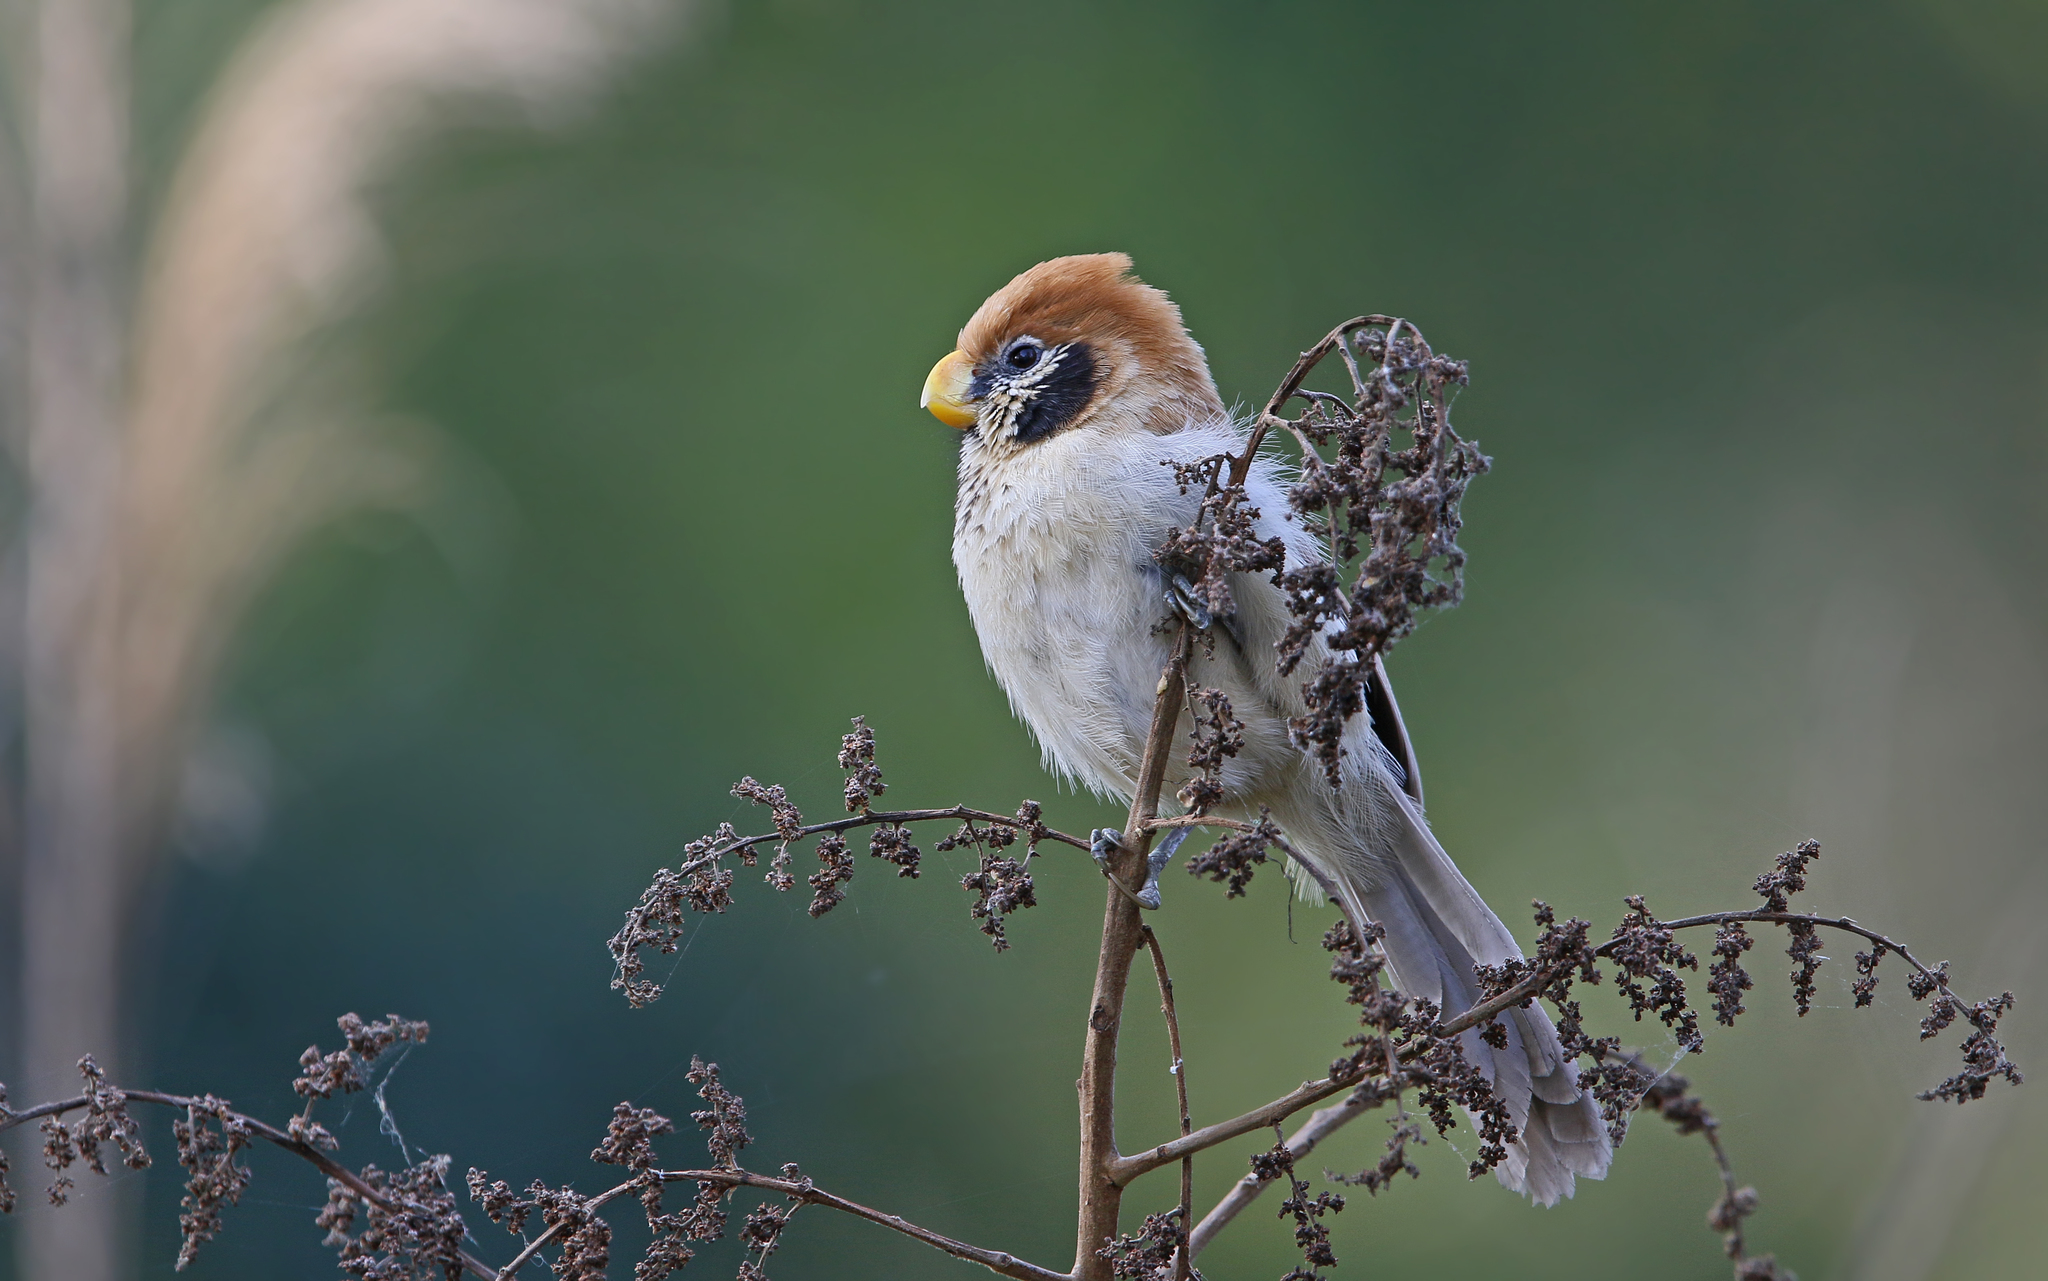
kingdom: Animalia
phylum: Chordata
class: Aves
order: Passeriformes
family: Sylviidae
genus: Paradoxornis
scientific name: Paradoxornis guttaticollis
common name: Spot-breasted parrotbill
